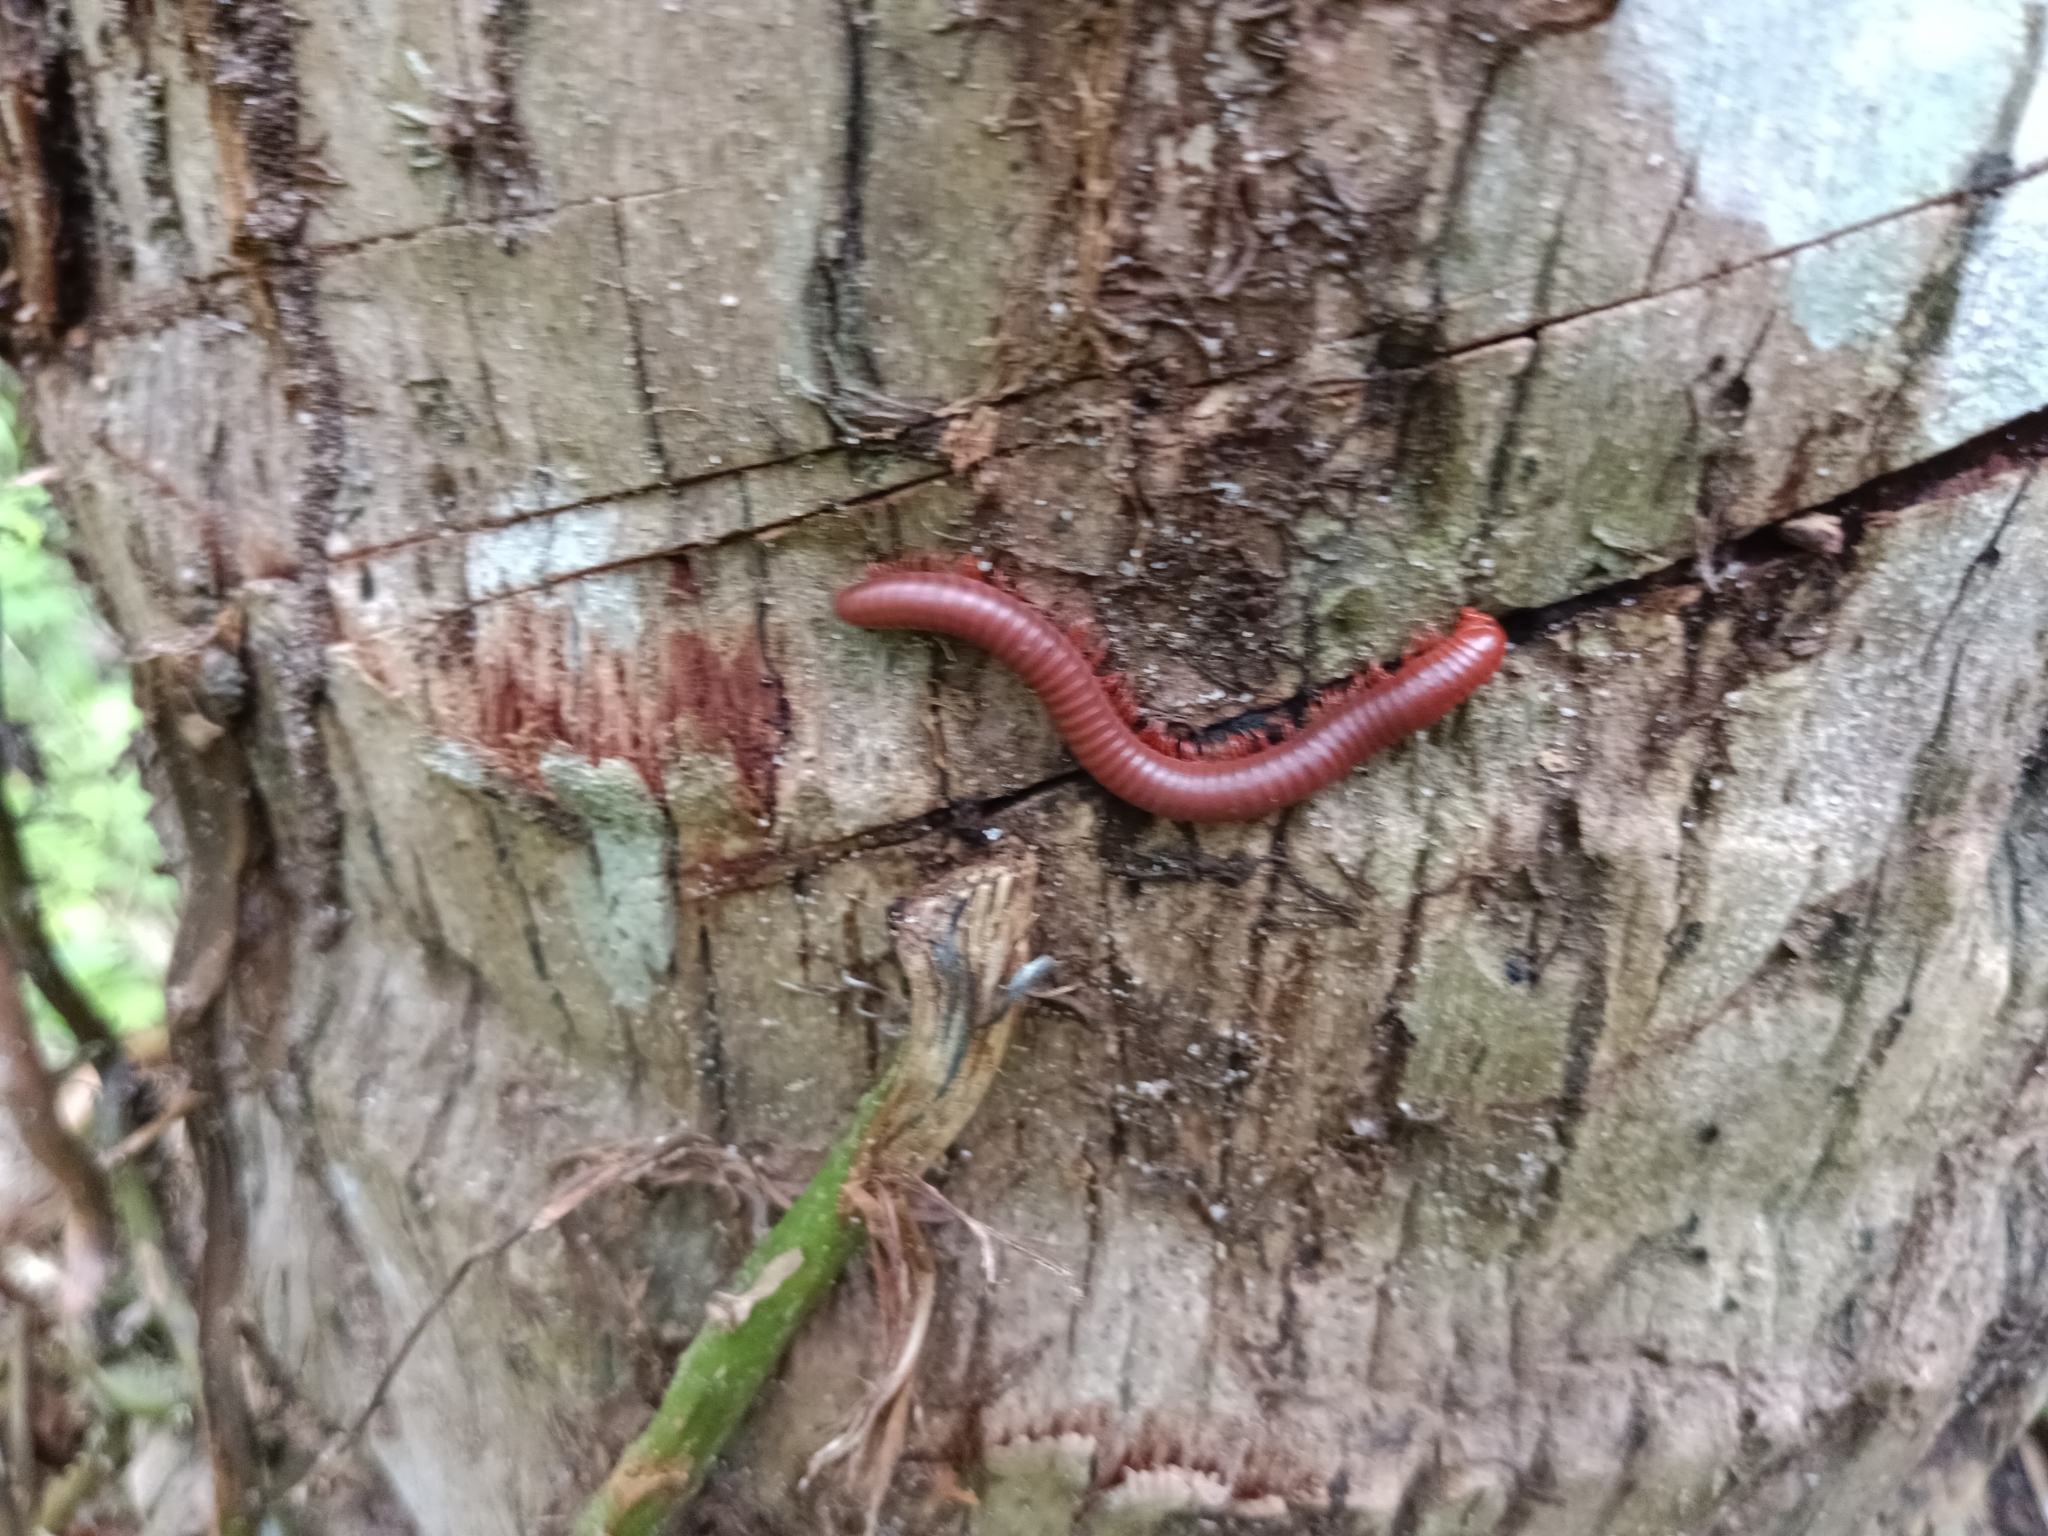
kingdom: Animalia
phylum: Arthropoda
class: Diplopoda
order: Spirobolida
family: Pachybolidae
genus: Trigoniulus
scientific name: Trigoniulus corallinus
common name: Millipede
